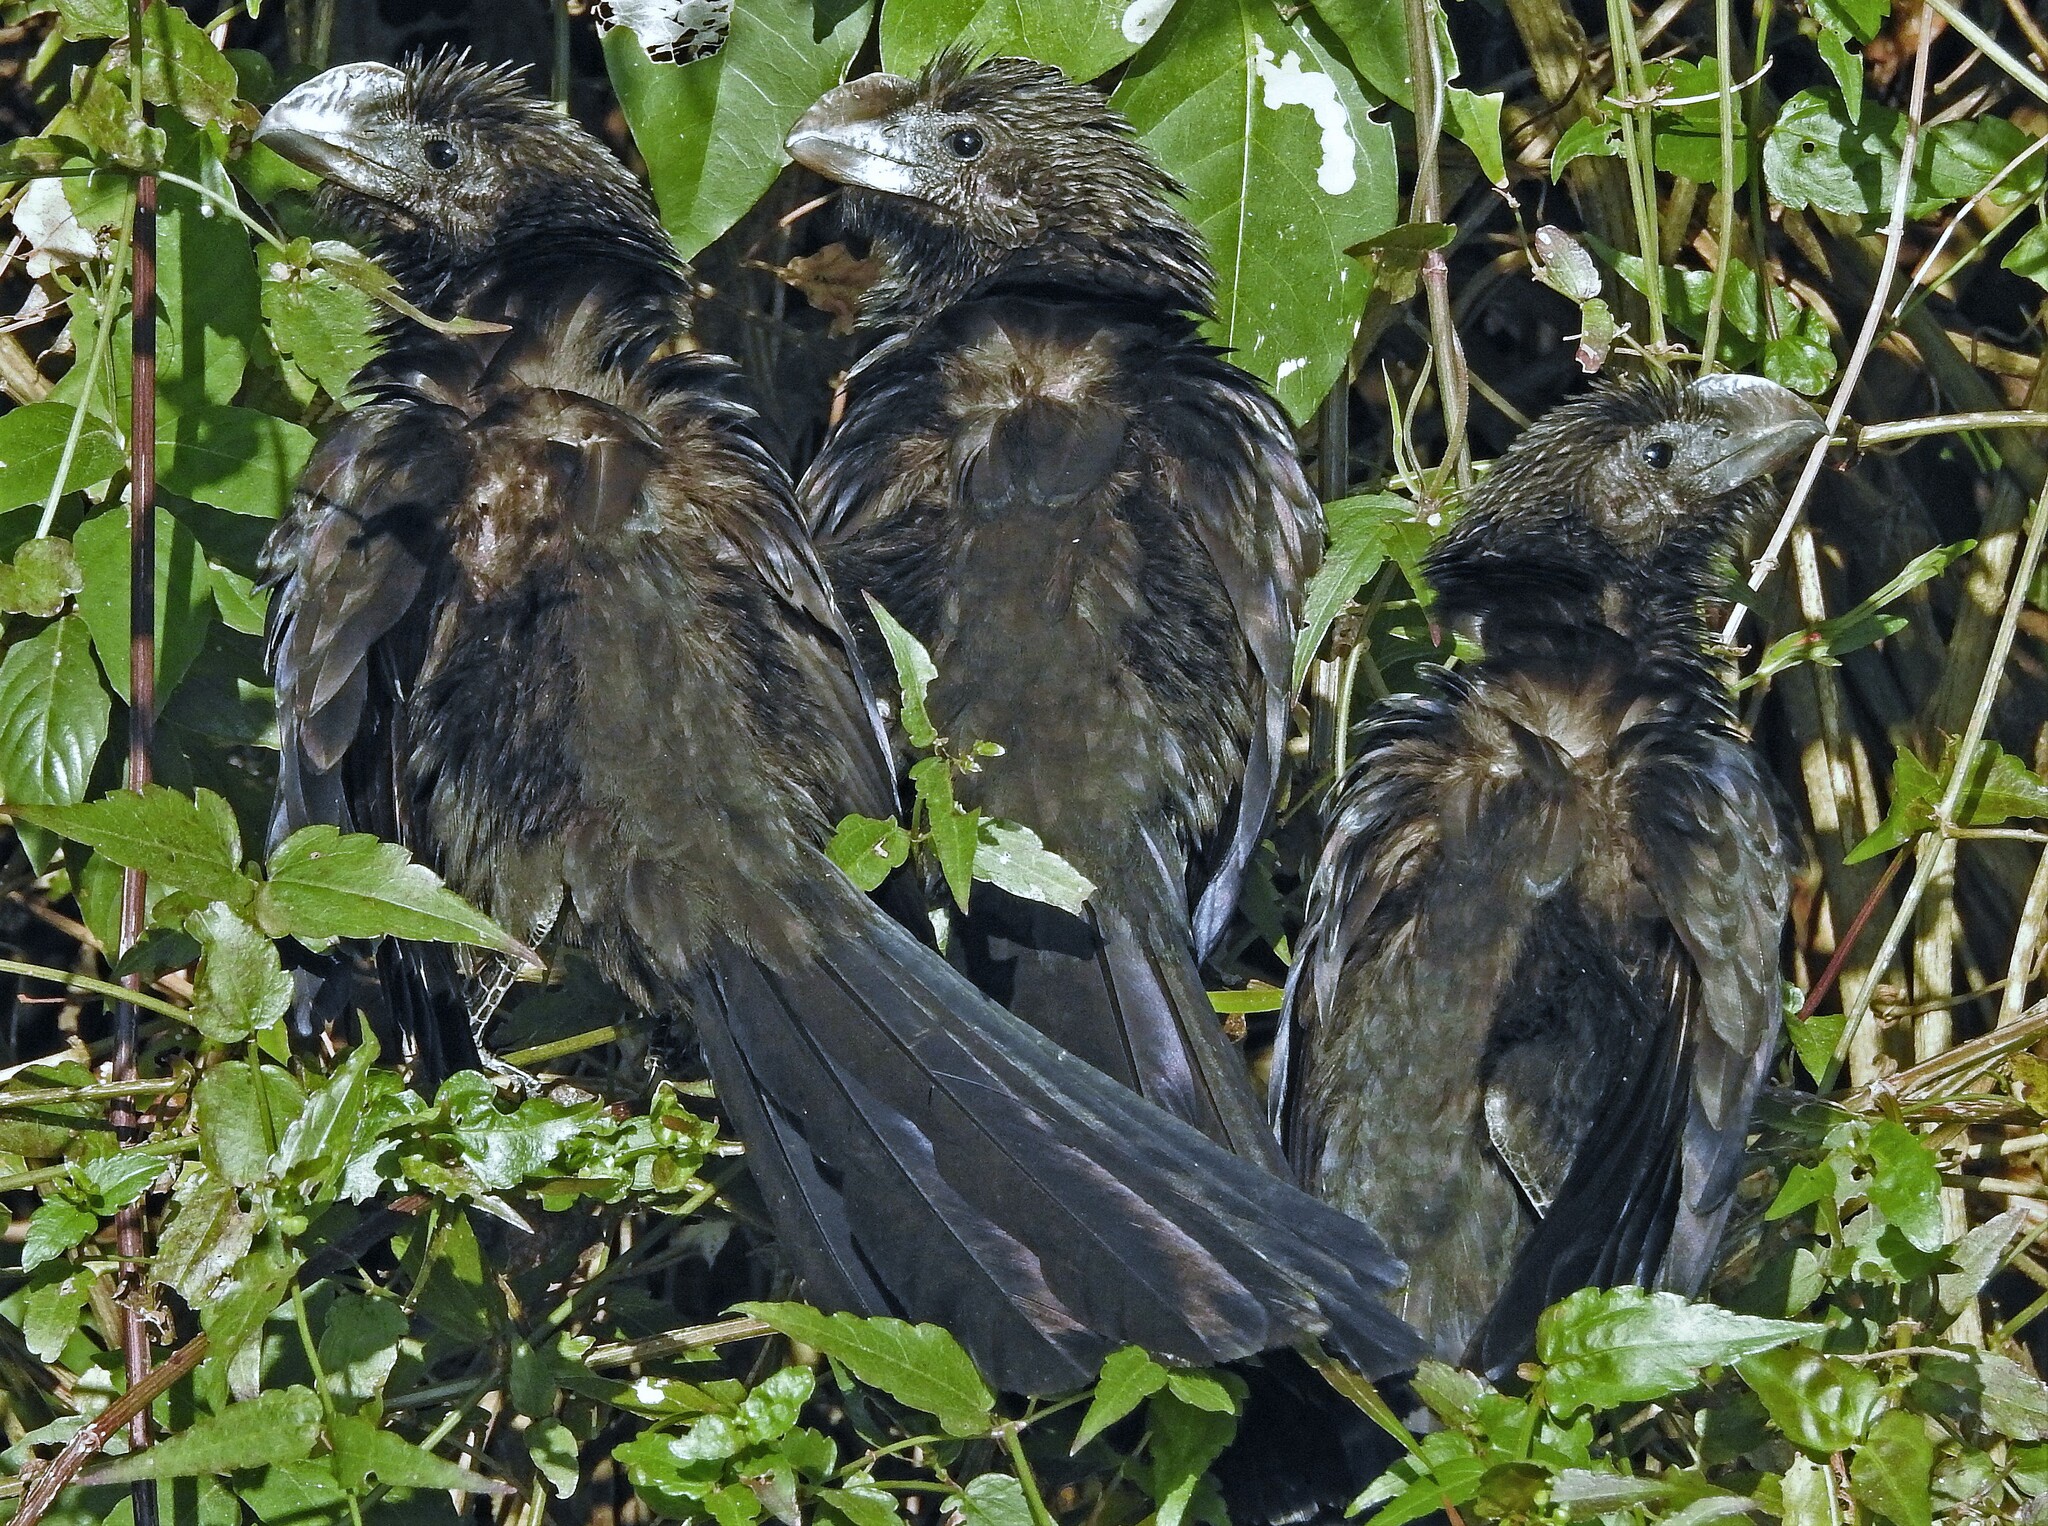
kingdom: Animalia
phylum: Chordata
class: Aves
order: Cuculiformes
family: Cuculidae
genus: Crotophaga
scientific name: Crotophaga ani
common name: Smooth-billed ani
